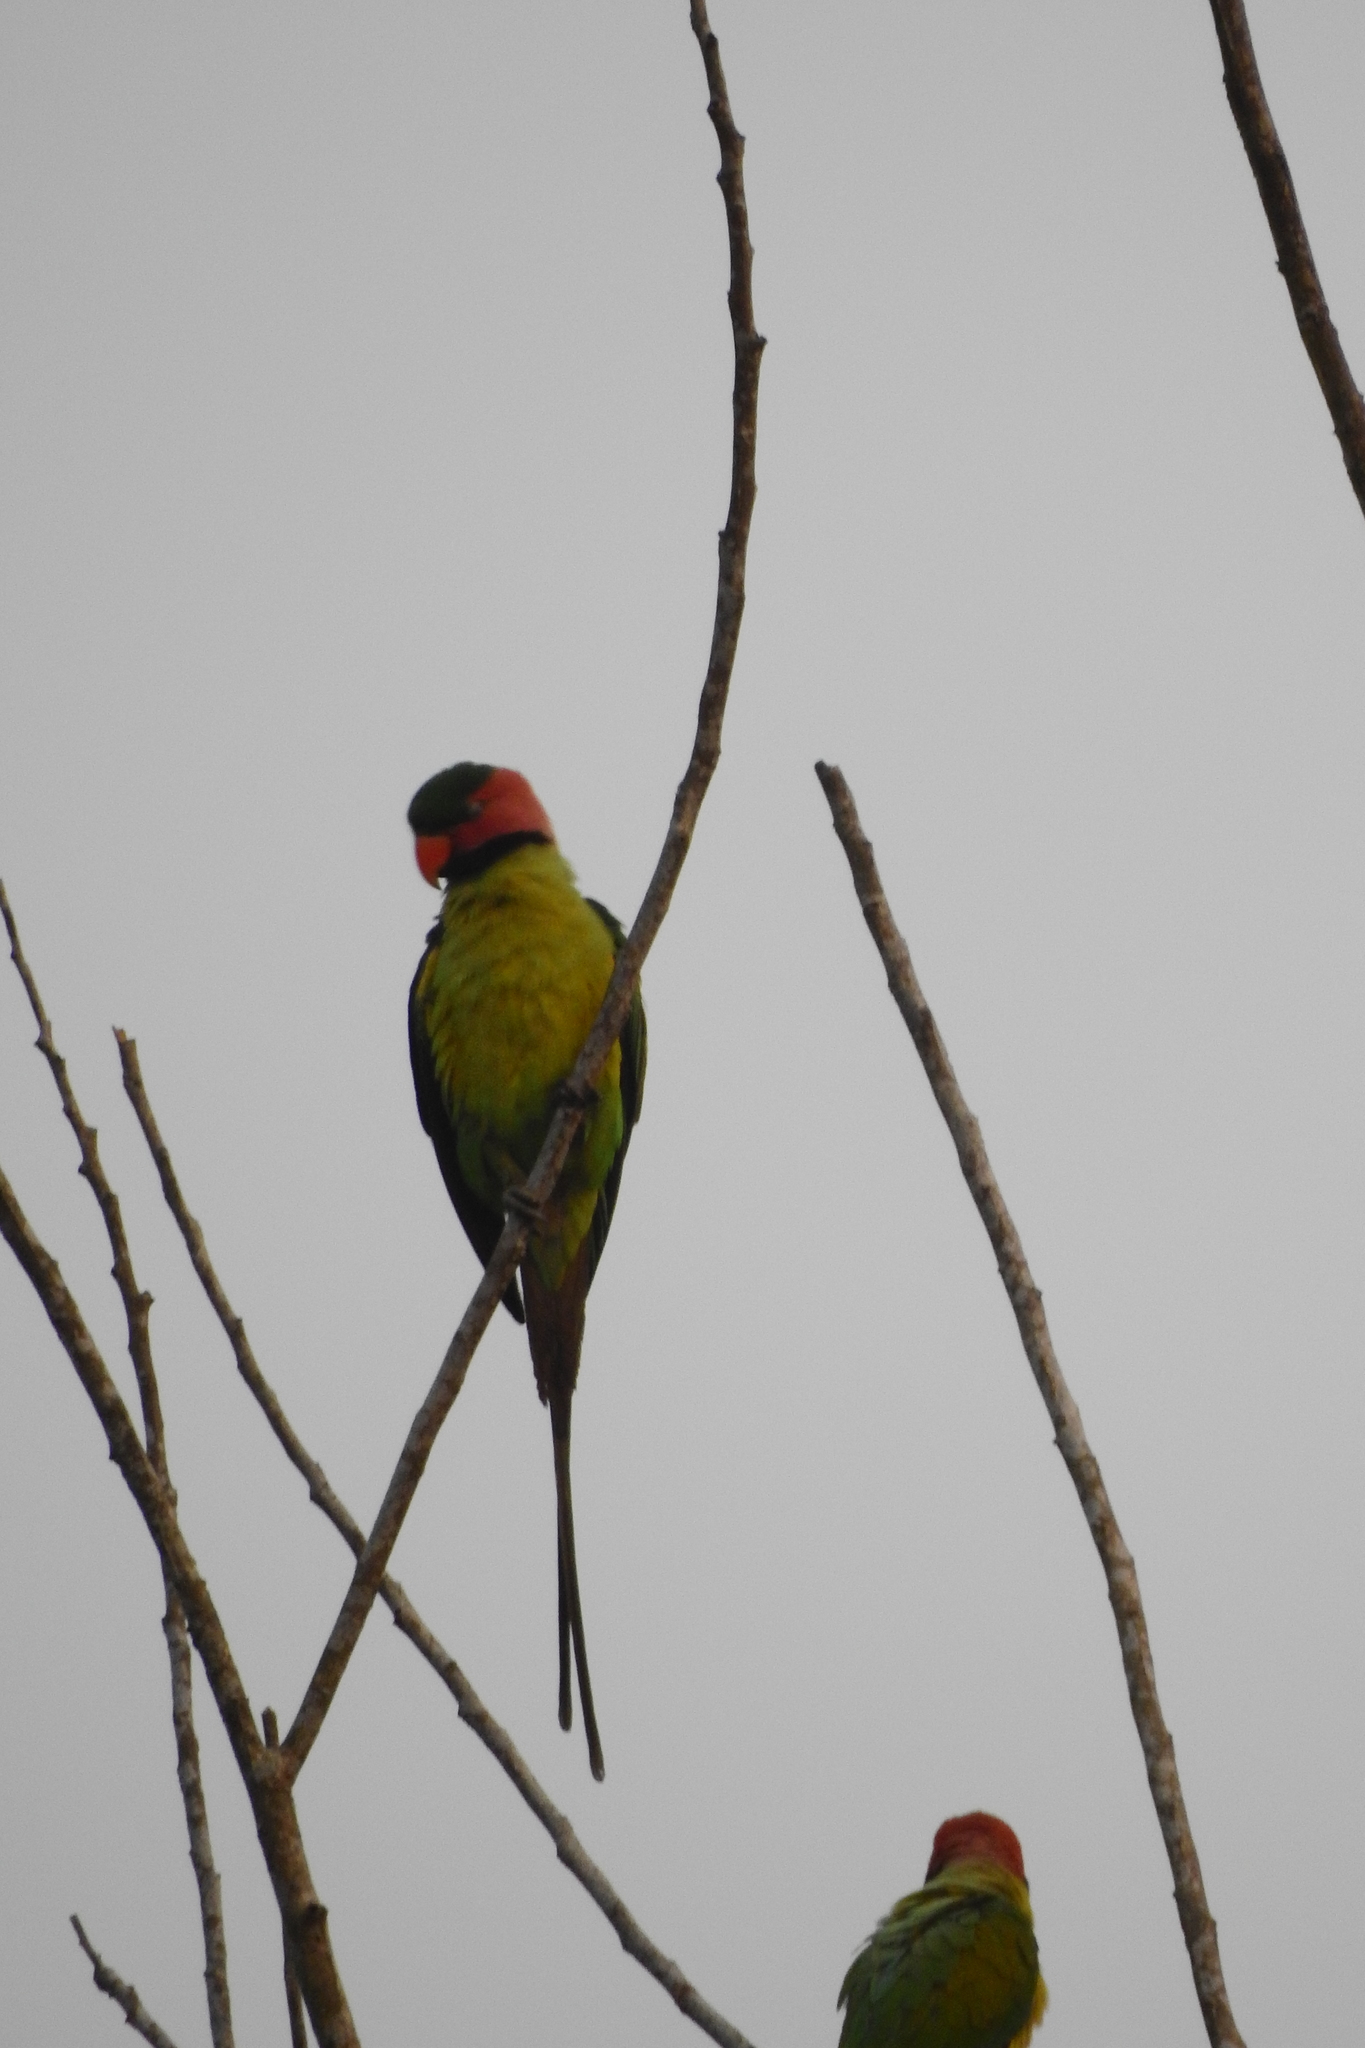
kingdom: Animalia
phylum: Chordata
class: Aves
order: Psittaciformes
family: Psittacidae
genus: Psittacula
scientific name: Psittacula longicauda
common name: Long-tailed parakeet
